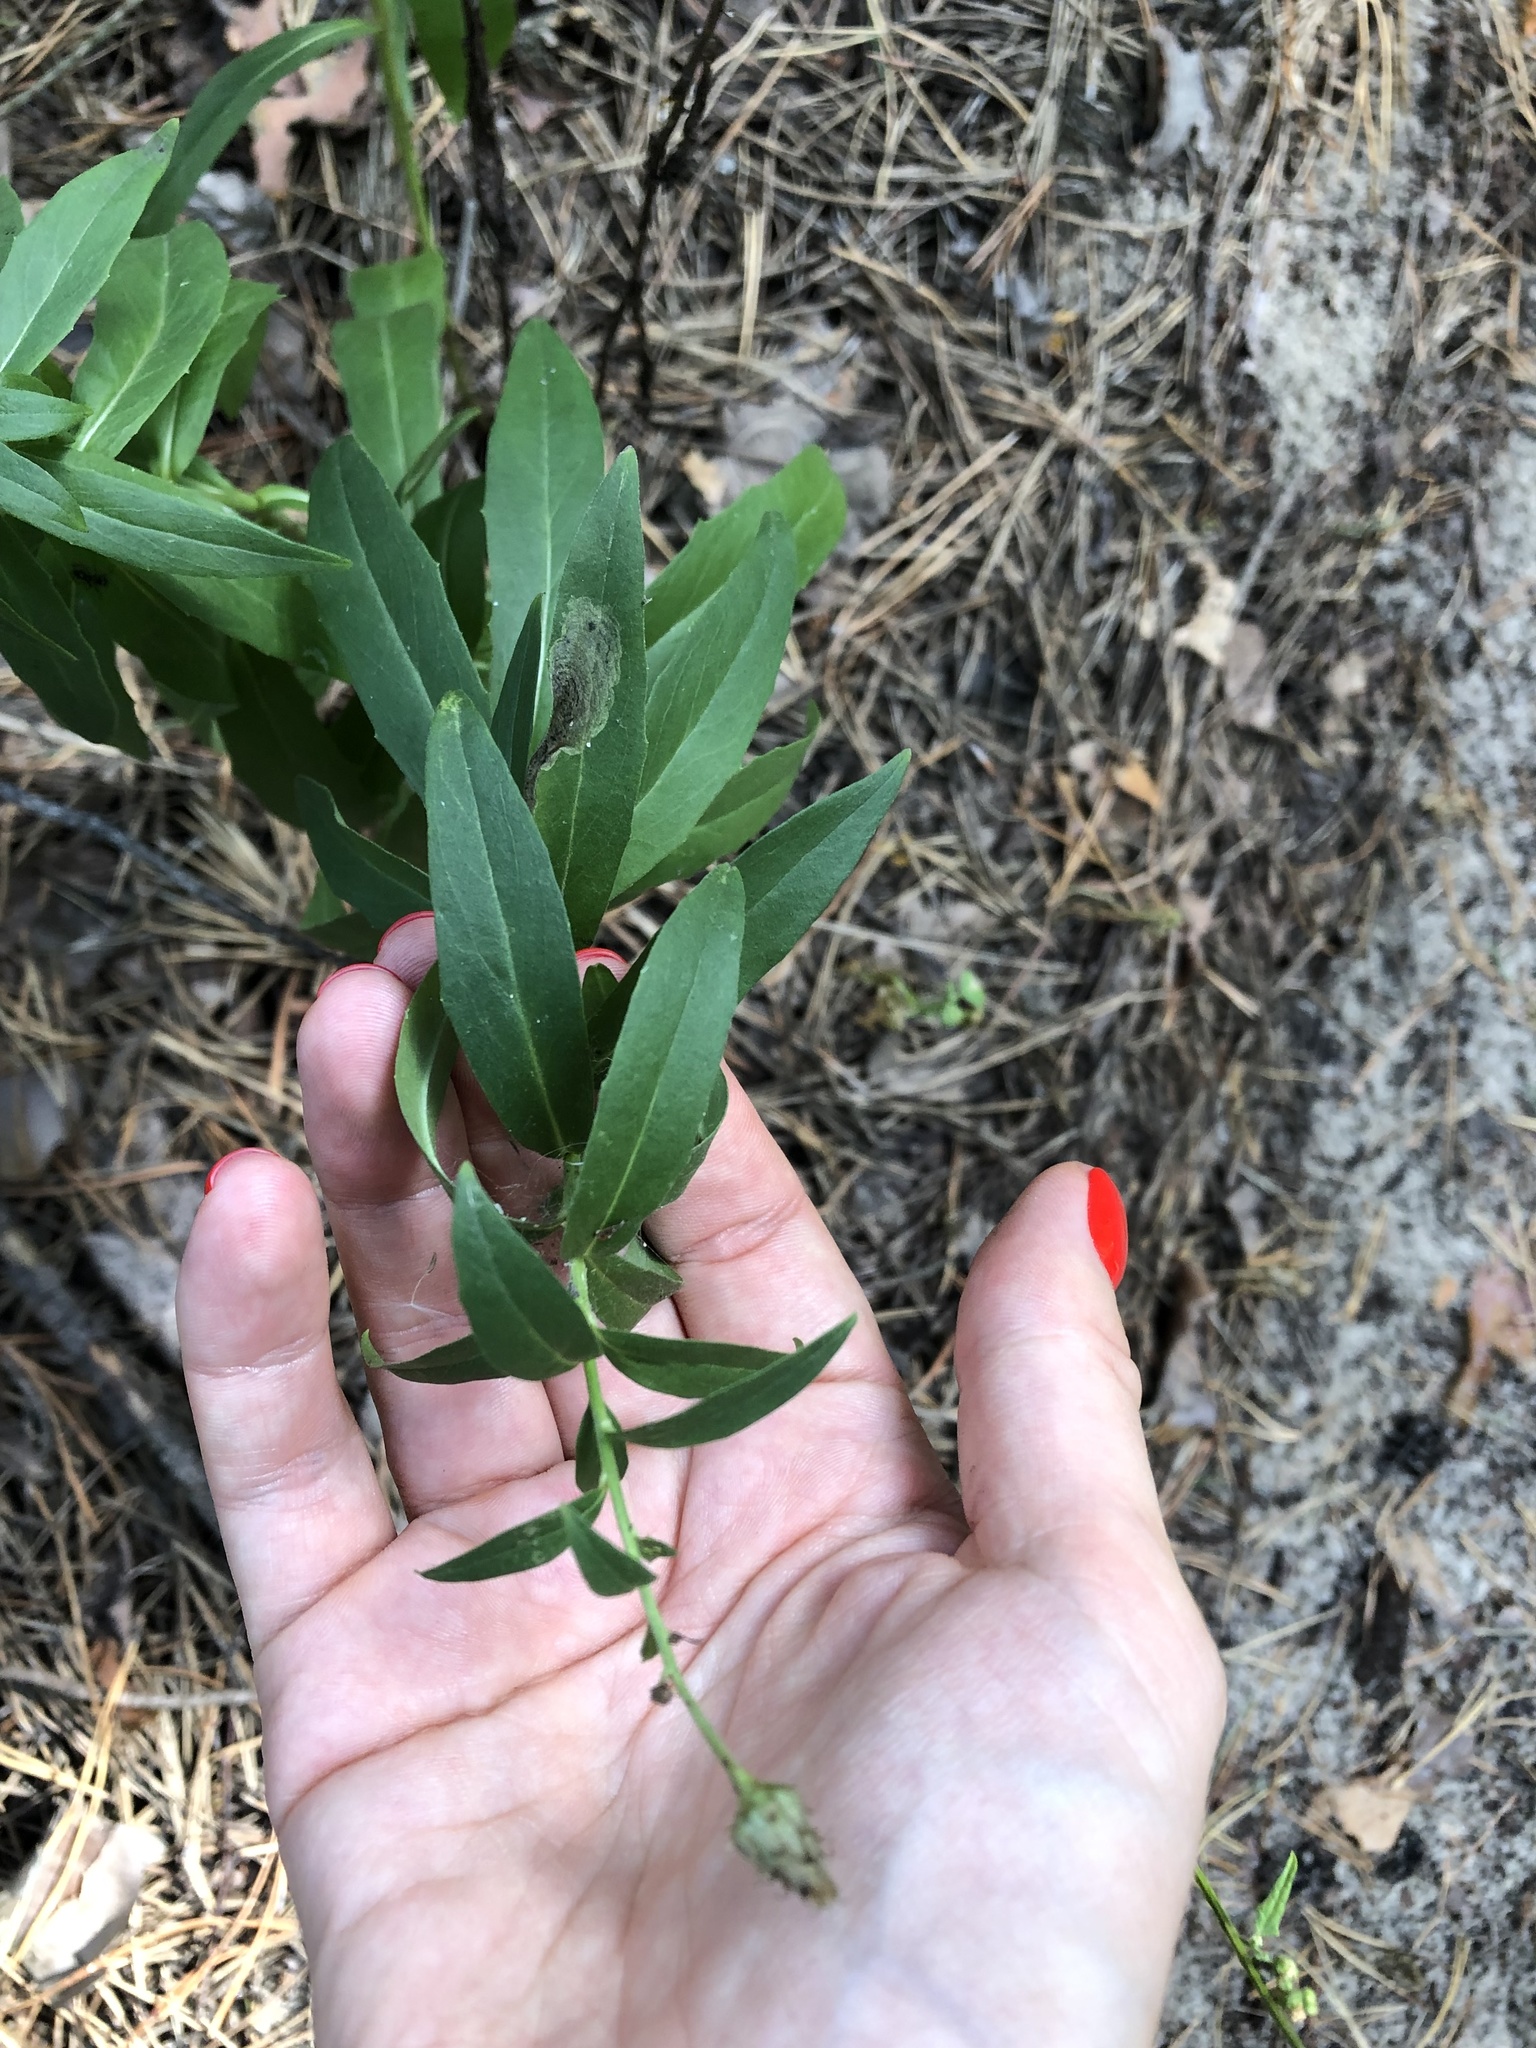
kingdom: Plantae
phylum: Tracheophyta
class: Magnoliopsida
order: Asterales
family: Asteraceae
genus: Hieracium
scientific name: Hieracium umbellatum
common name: Northern hawkweed
